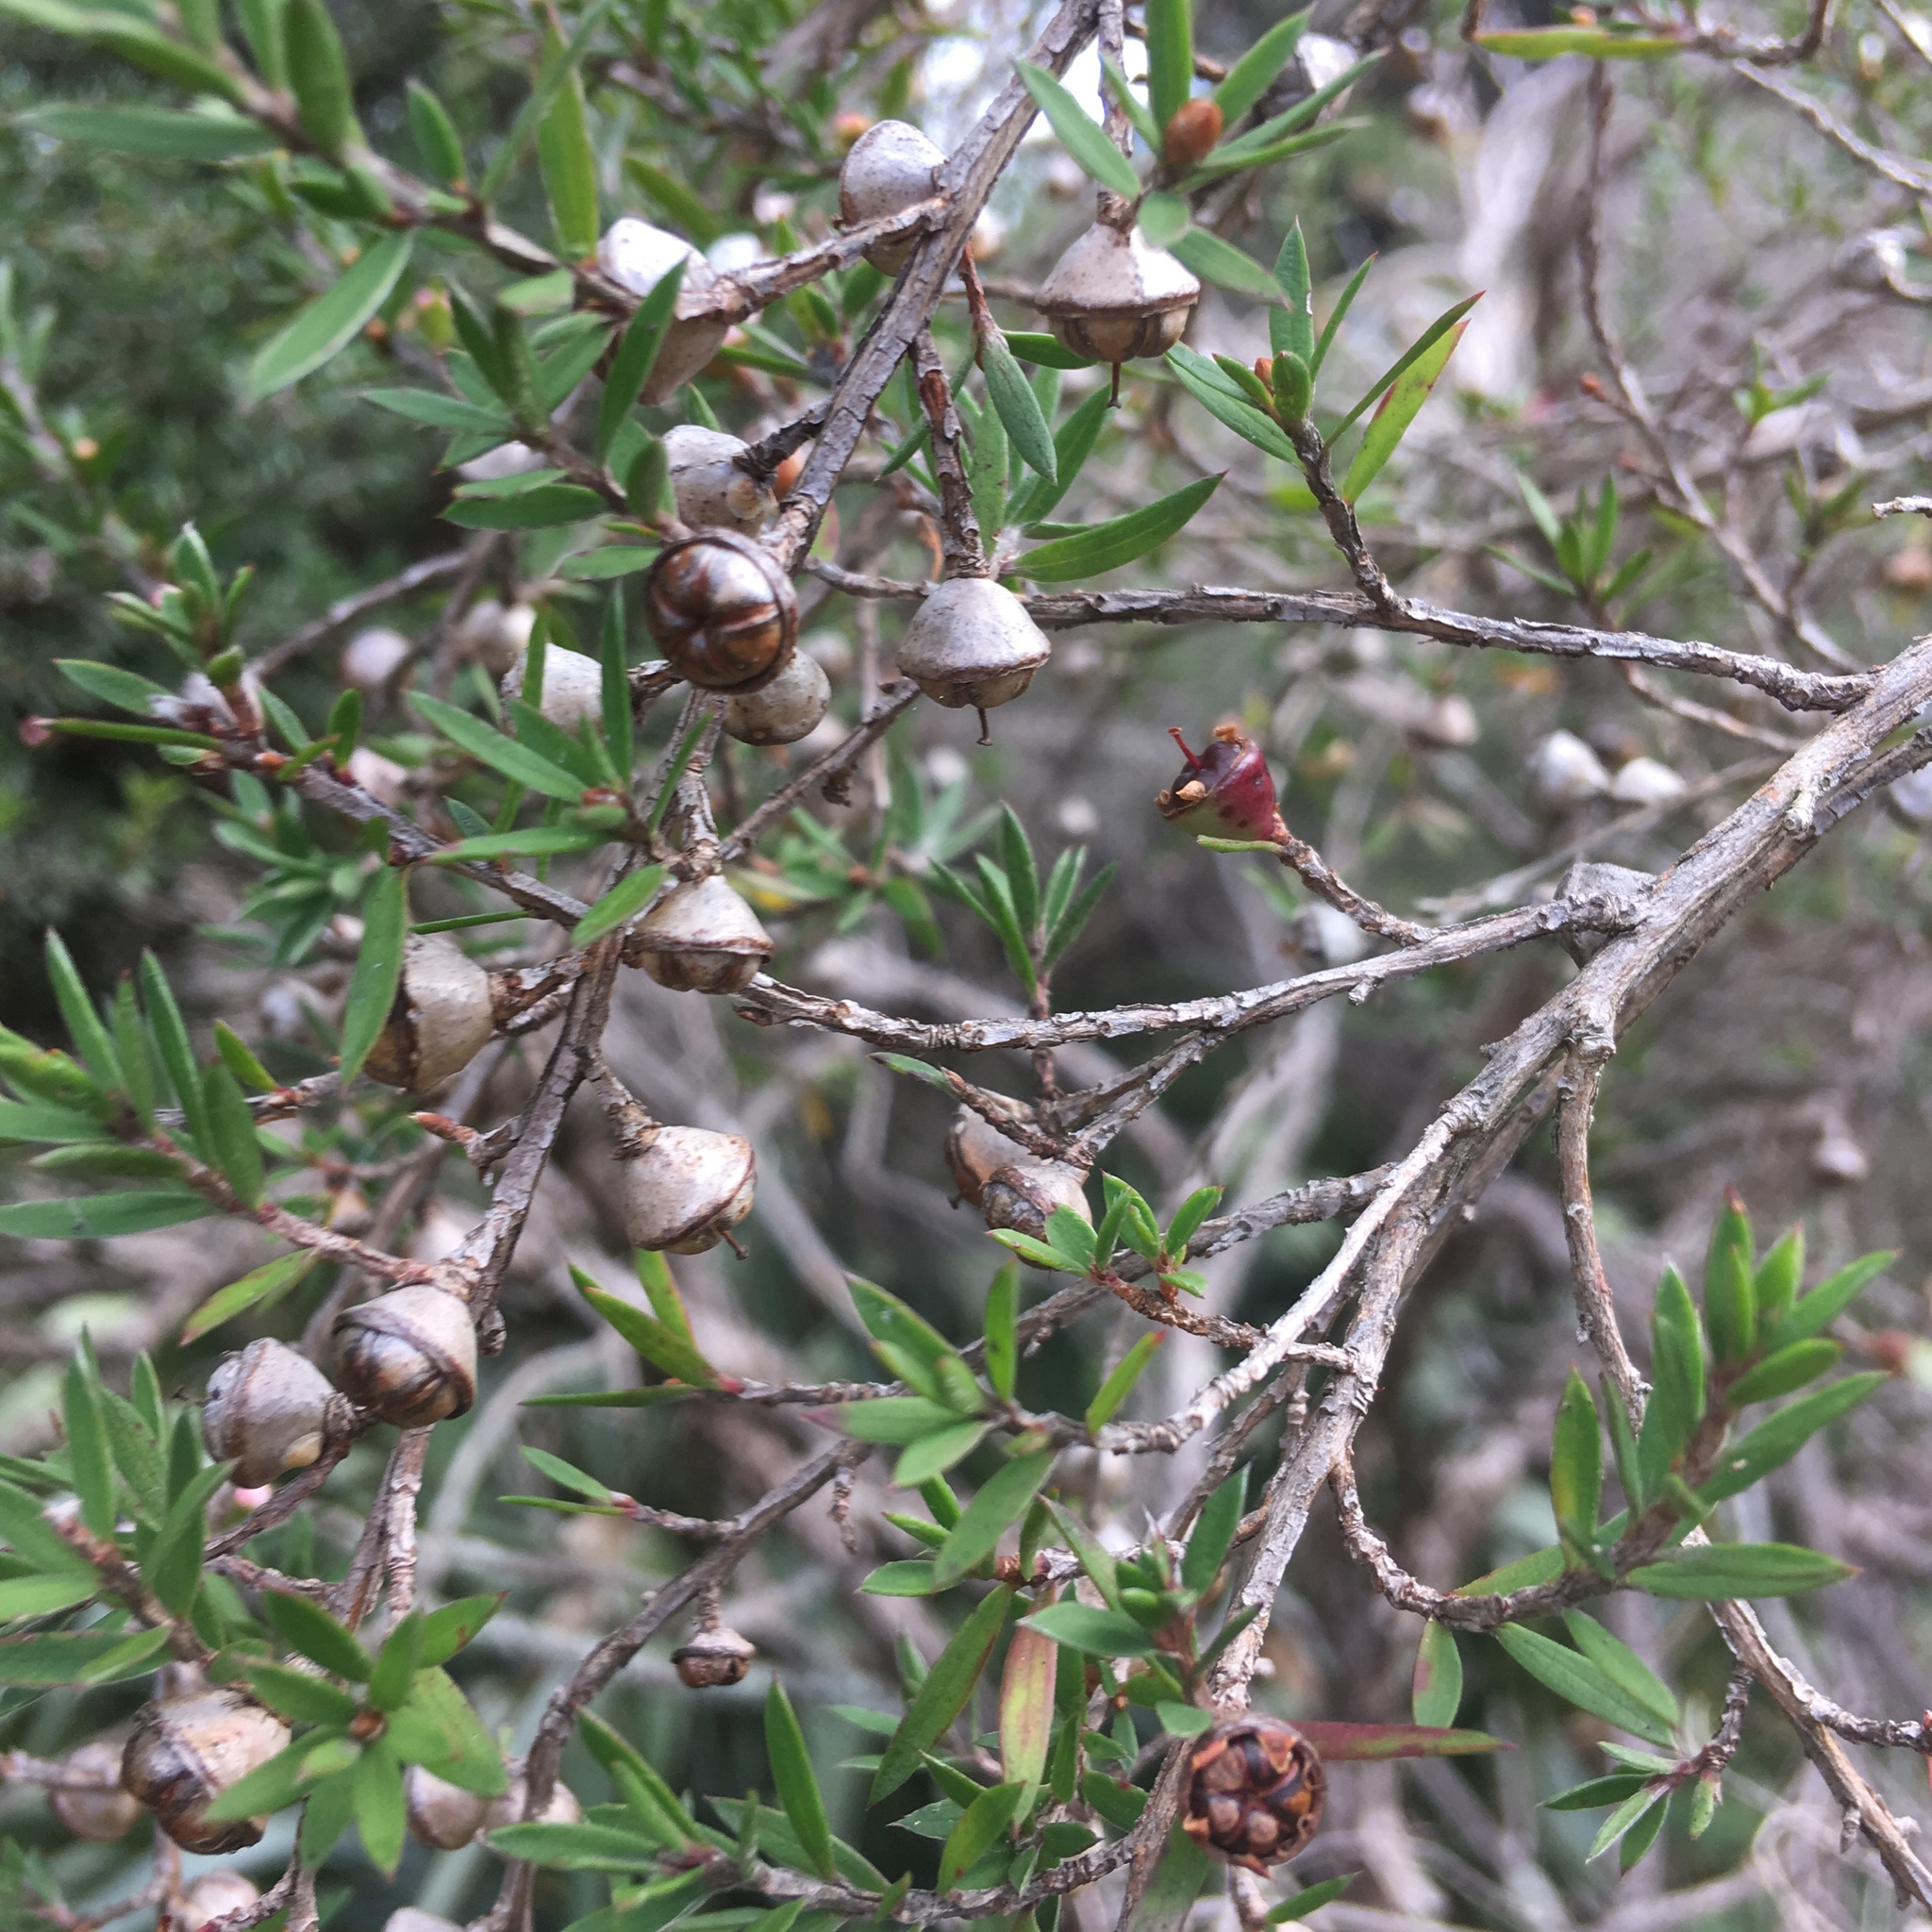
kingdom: Plantae
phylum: Tracheophyta
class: Magnoliopsida
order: Myrtales
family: Myrtaceae
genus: Leptospermum
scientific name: Leptospermum scoparium
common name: Broom tea-tree
